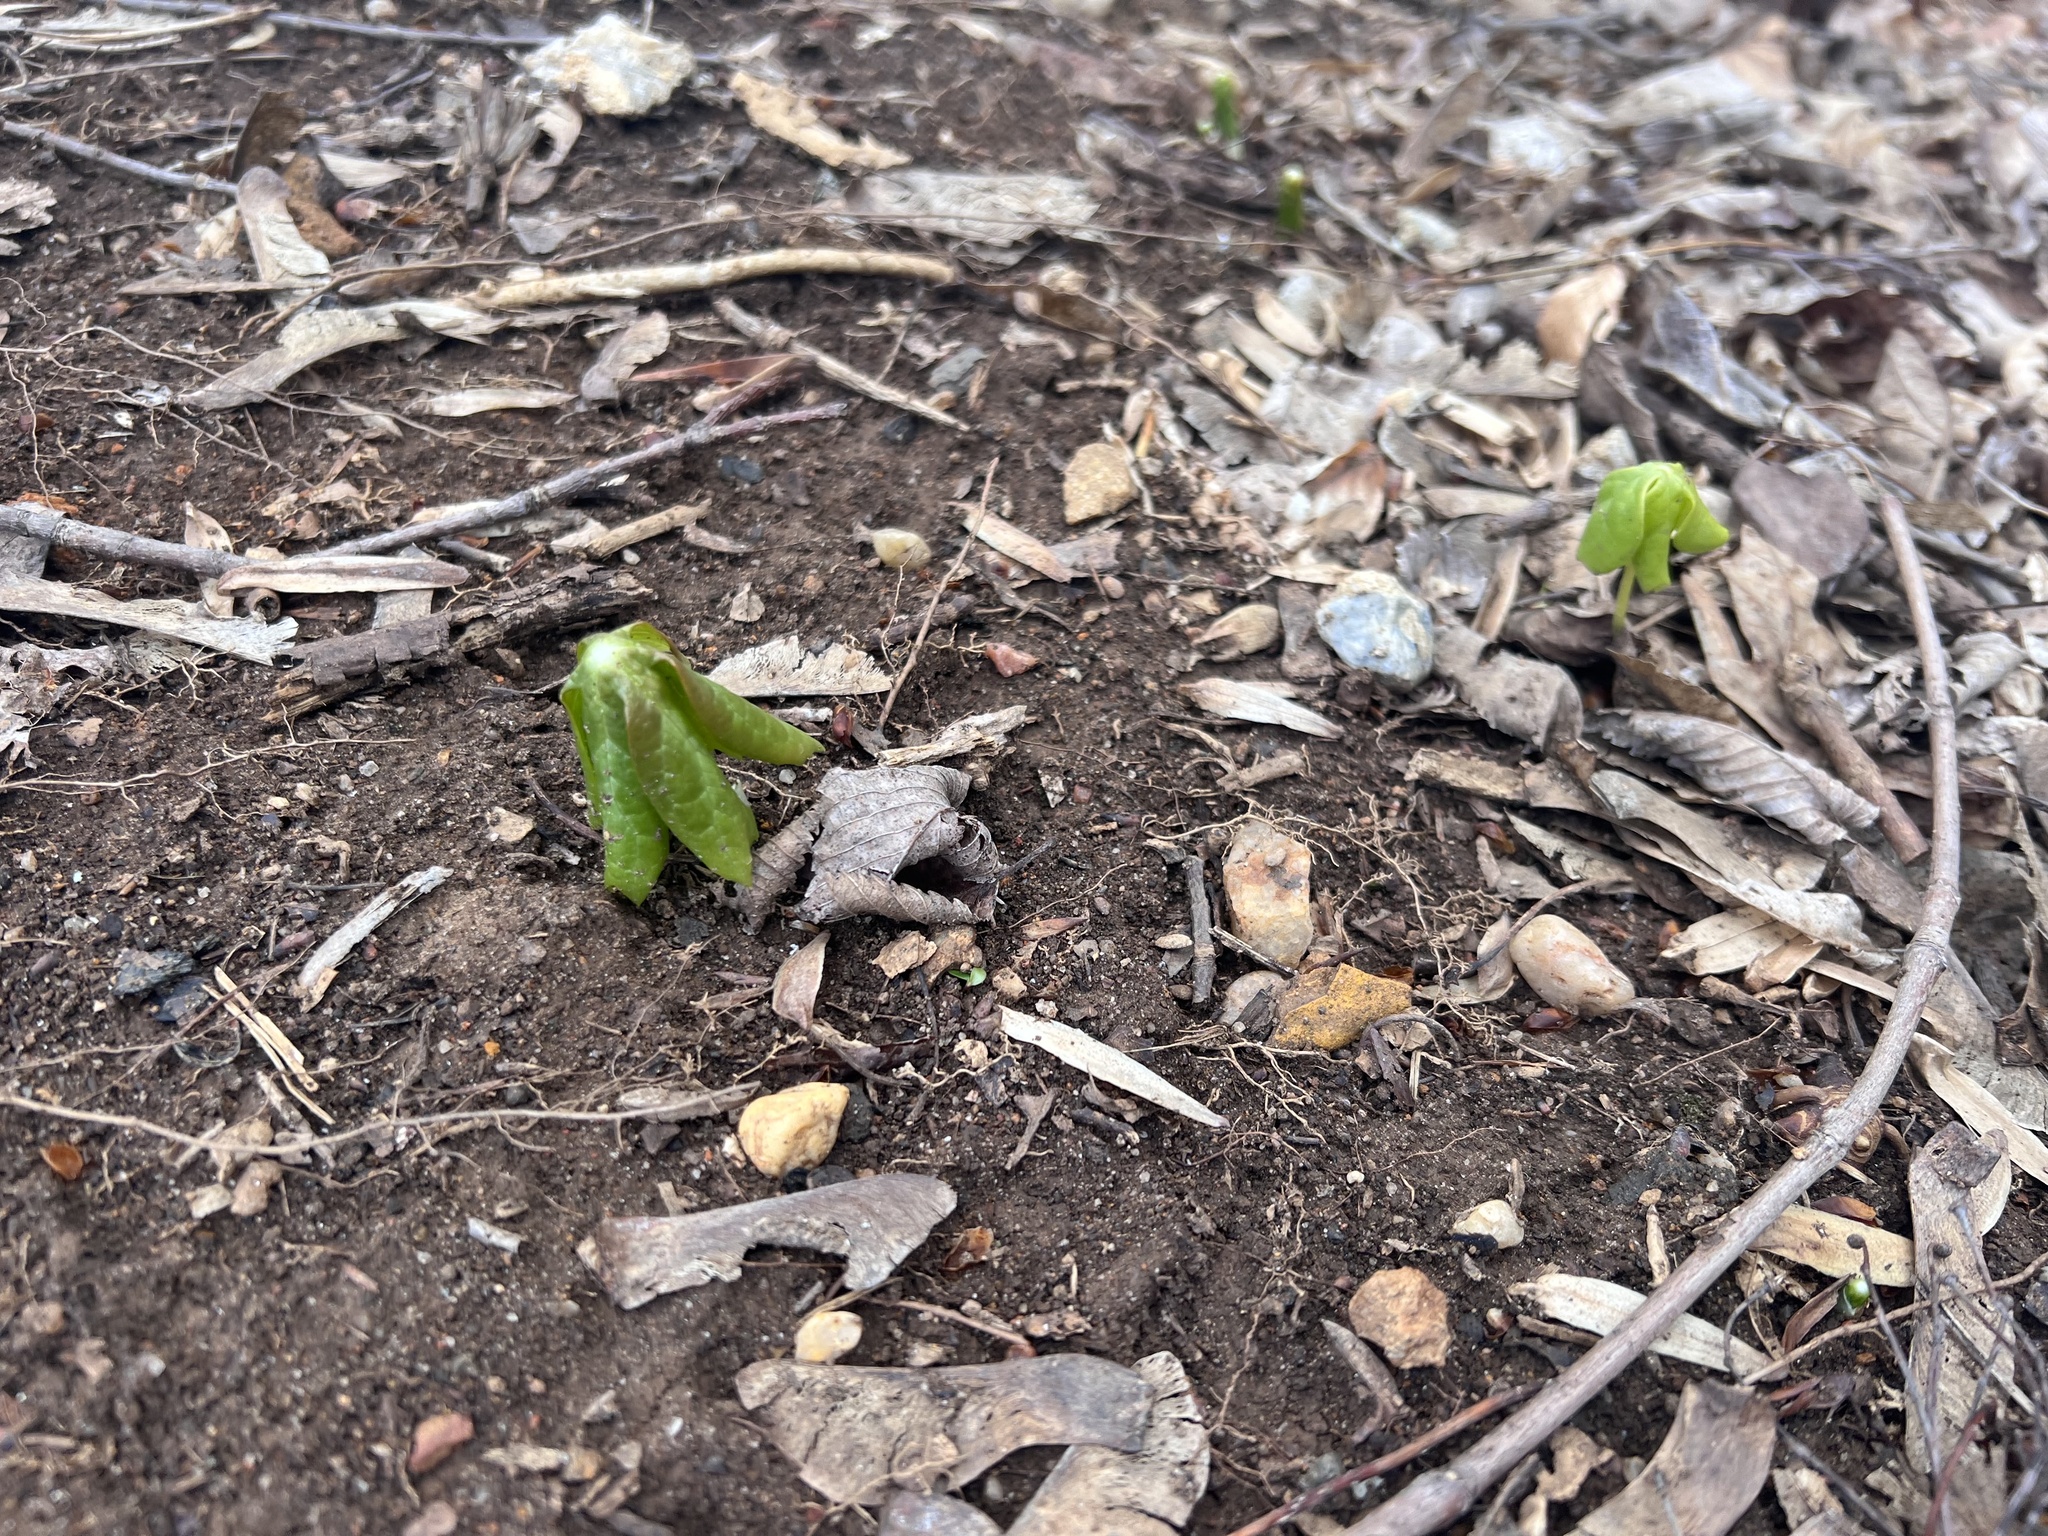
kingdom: Plantae
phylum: Tracheophyta
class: Magnoliopsida
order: Ranunculales
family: Berberidaceae
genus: Podophyllum
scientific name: Podophyllum peltatum
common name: Wild mandrake
